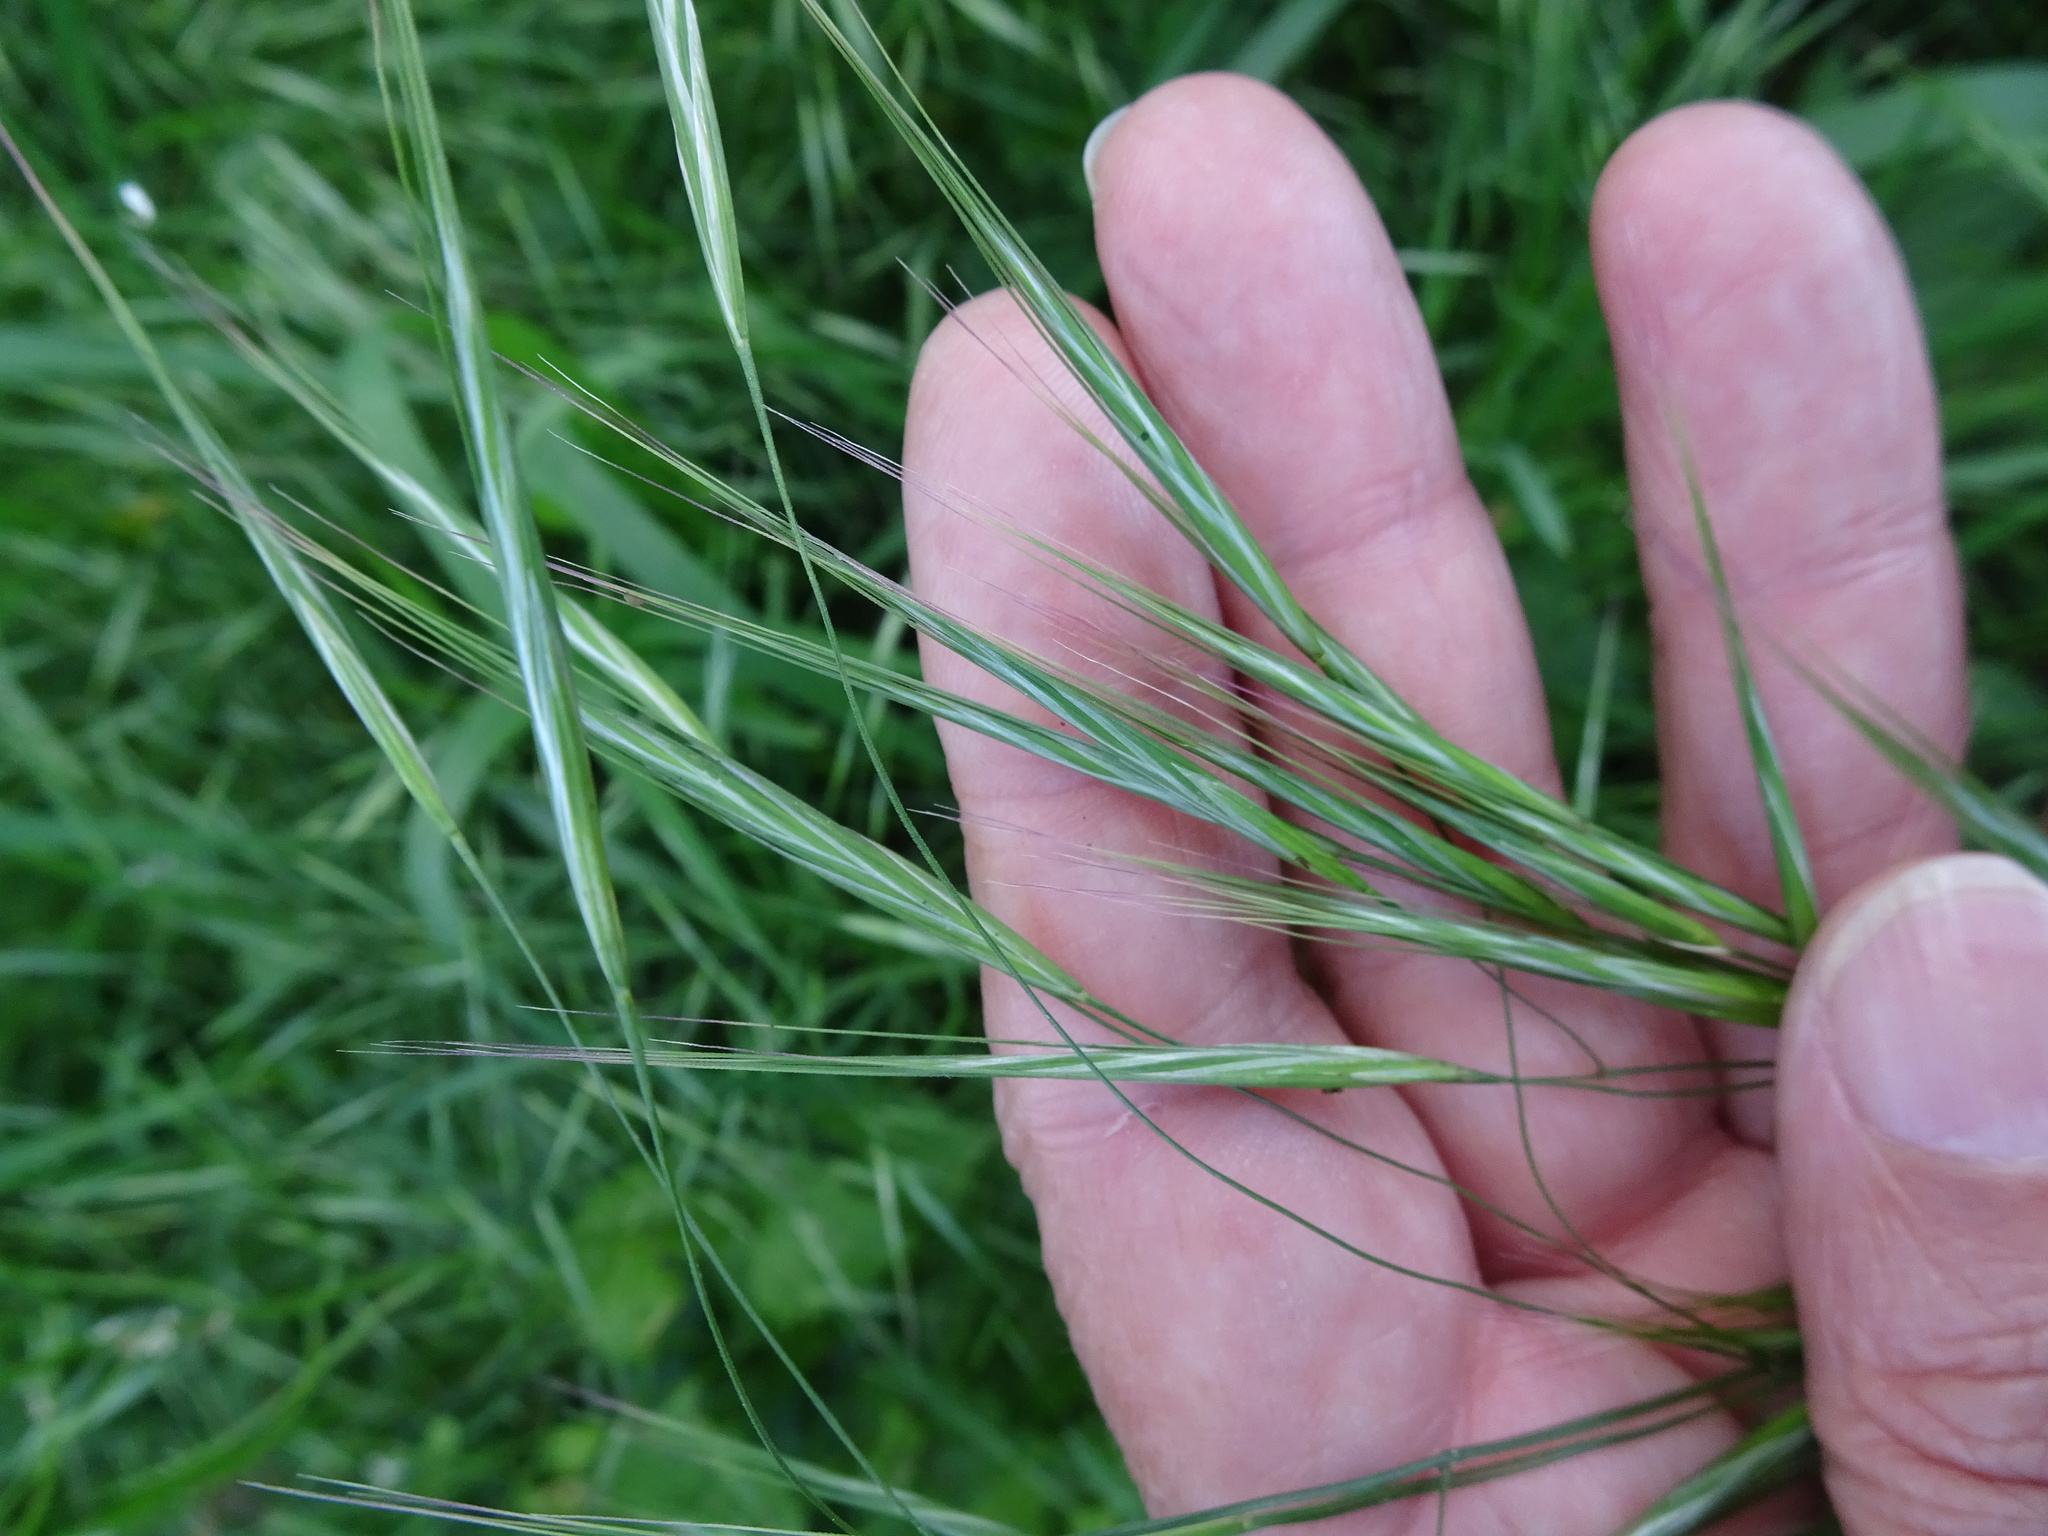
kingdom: Plantae
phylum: Tracheophyta
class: Liliopsida
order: Poales
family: Poaceae
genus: Bromus
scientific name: Bromus sterilis
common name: Poverty brome
